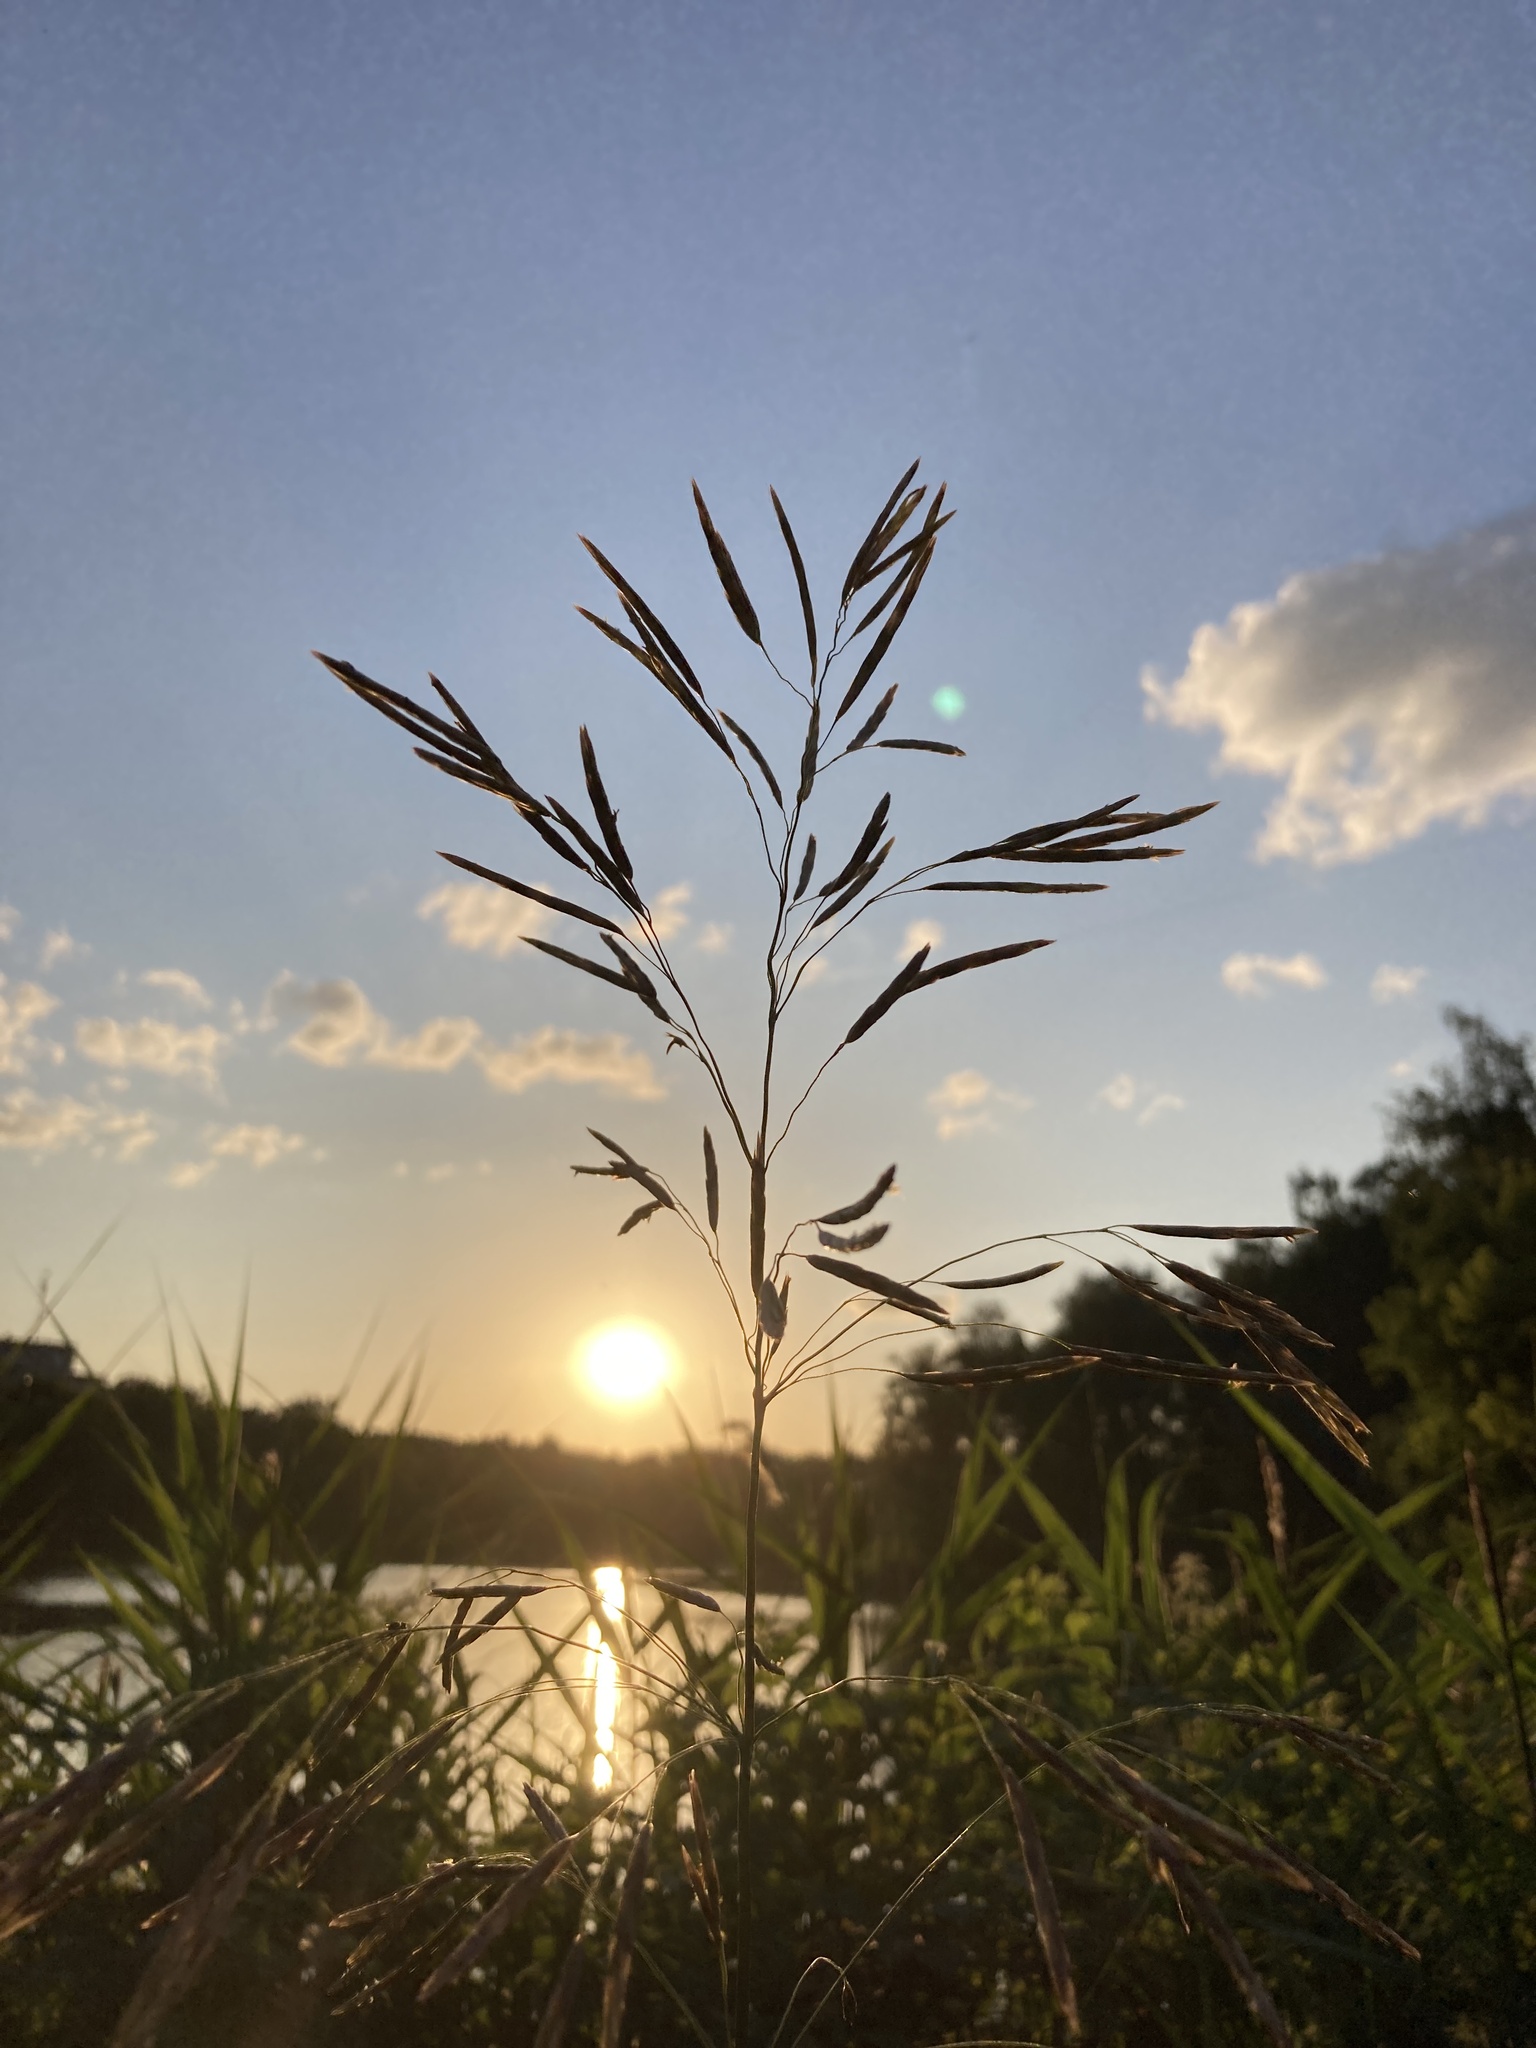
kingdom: Plantae
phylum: Tracheophyta
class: Liliopsida
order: Poales
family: Poaceae
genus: Bromus
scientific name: Bromus inermis
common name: Smooth brome
